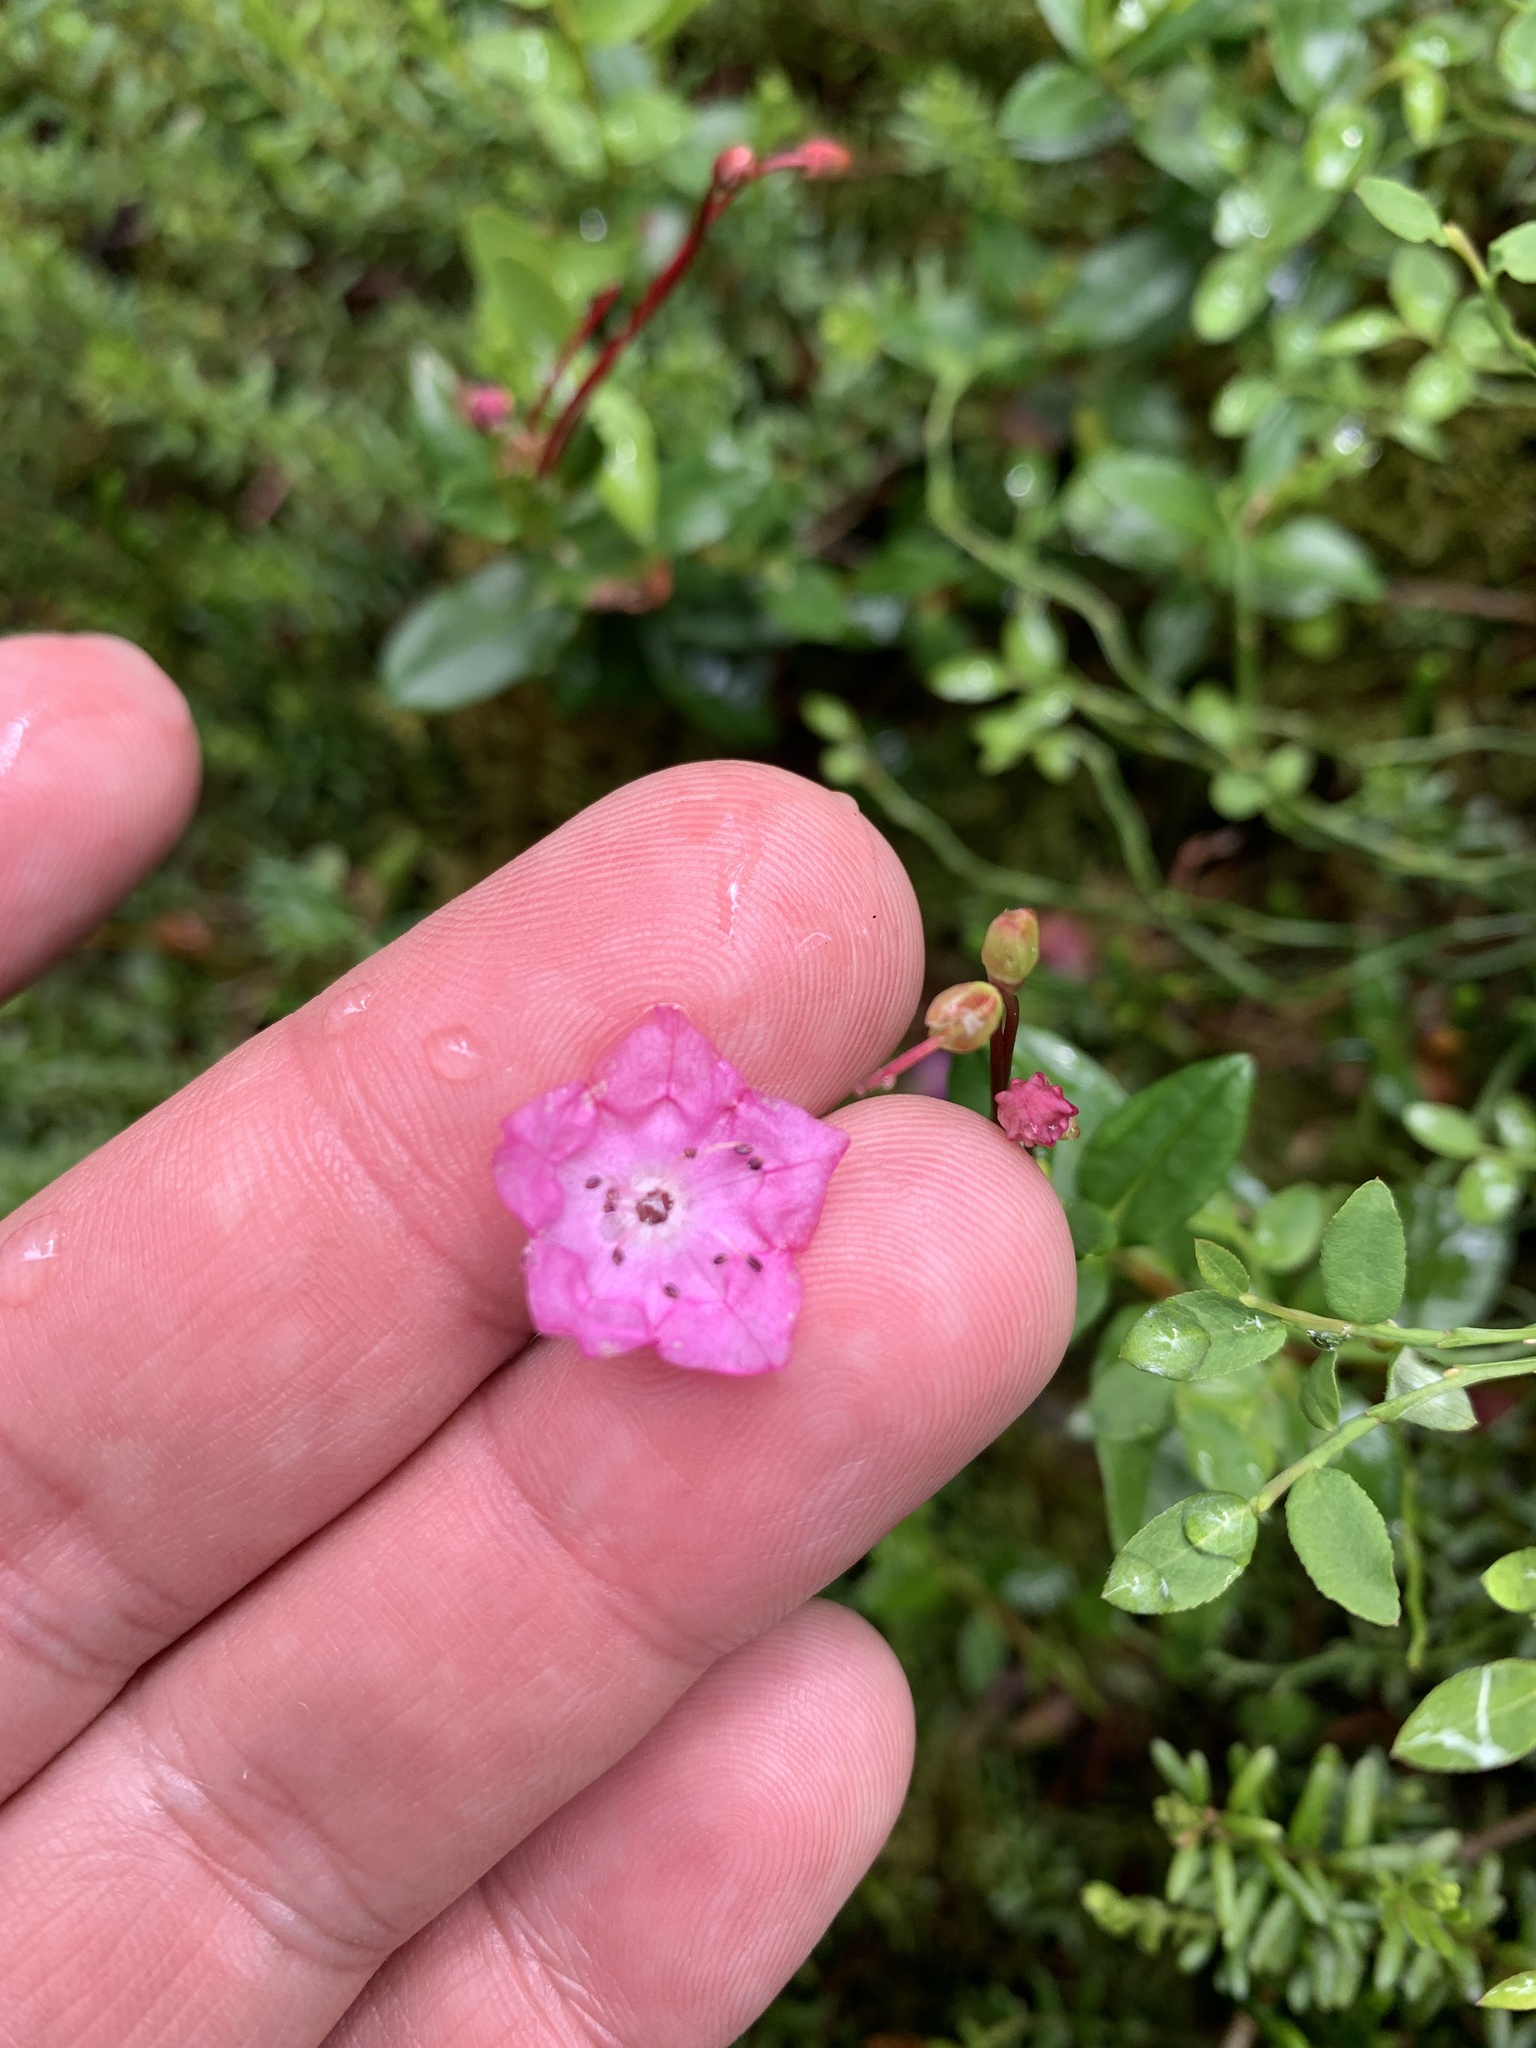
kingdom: Plantae
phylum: Tracheophyta
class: Magnoliopsida
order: Ericales
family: Ericaceae
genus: Kalmia
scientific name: Kalmia microphylla
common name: Alpine bog laurel
